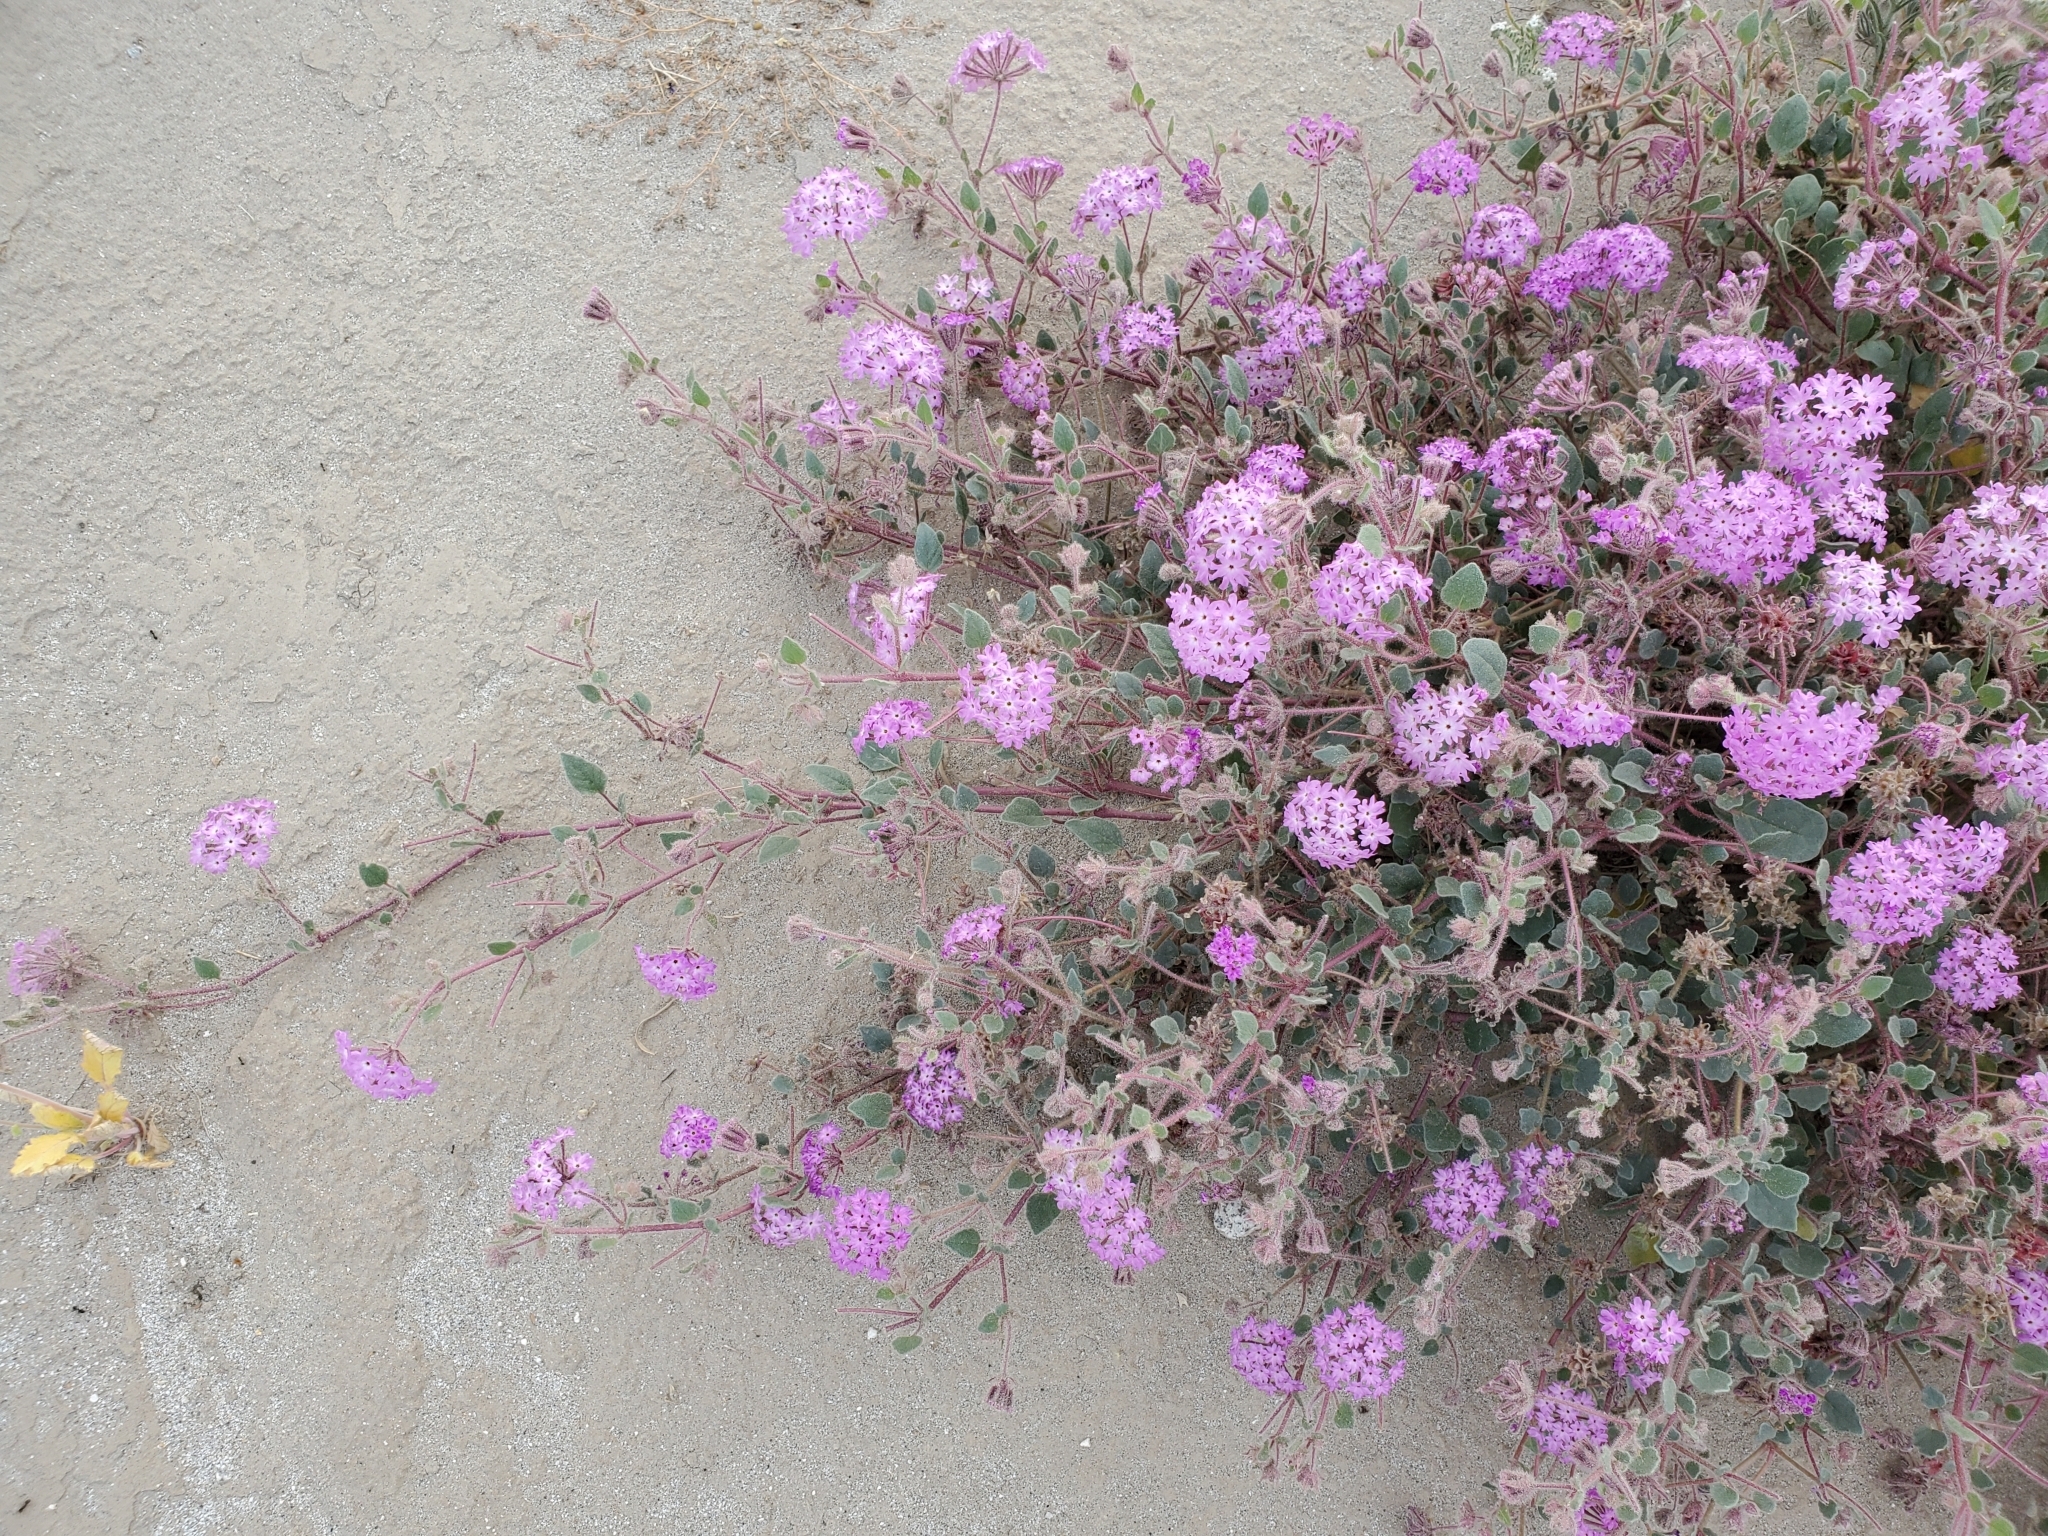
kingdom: Plantae
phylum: Tracheophyta
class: Magnoliopsida
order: Caryophyllales
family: Nyctaginaceae
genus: Abronia
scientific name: Abronia villosa
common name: Desert sand-verbena
